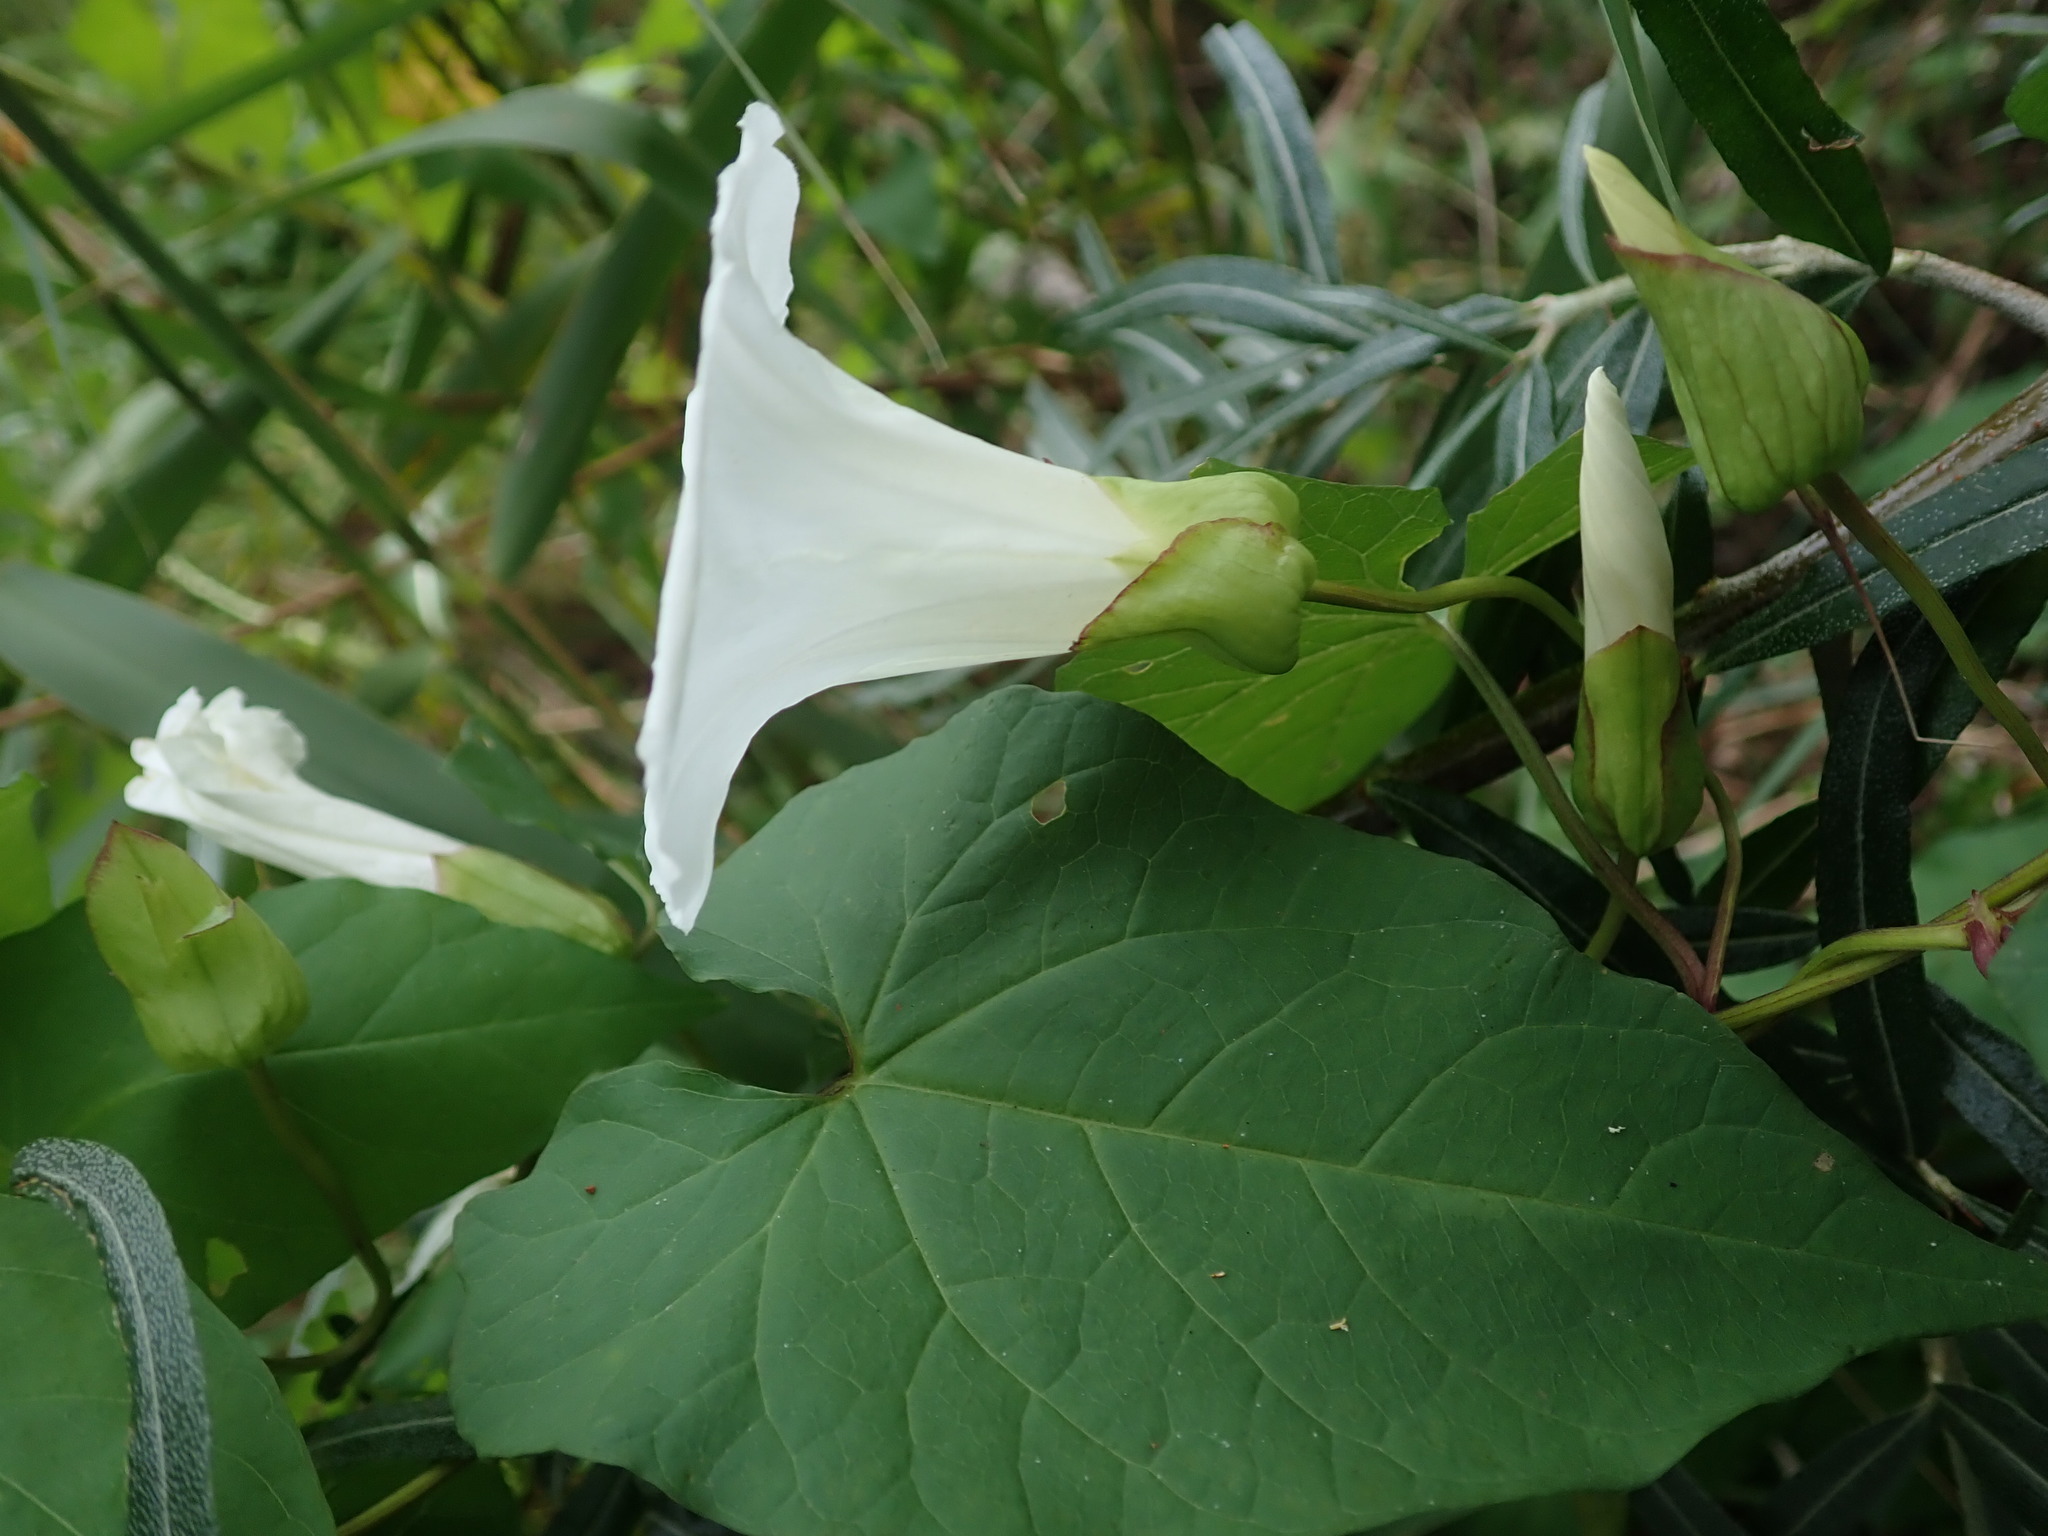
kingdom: Plantae
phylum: Tracheophyta
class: Magnoliopsida
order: Solanales
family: Convolvulaceae
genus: Calystegia
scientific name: Calystegia silvatica
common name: Large bindweed
